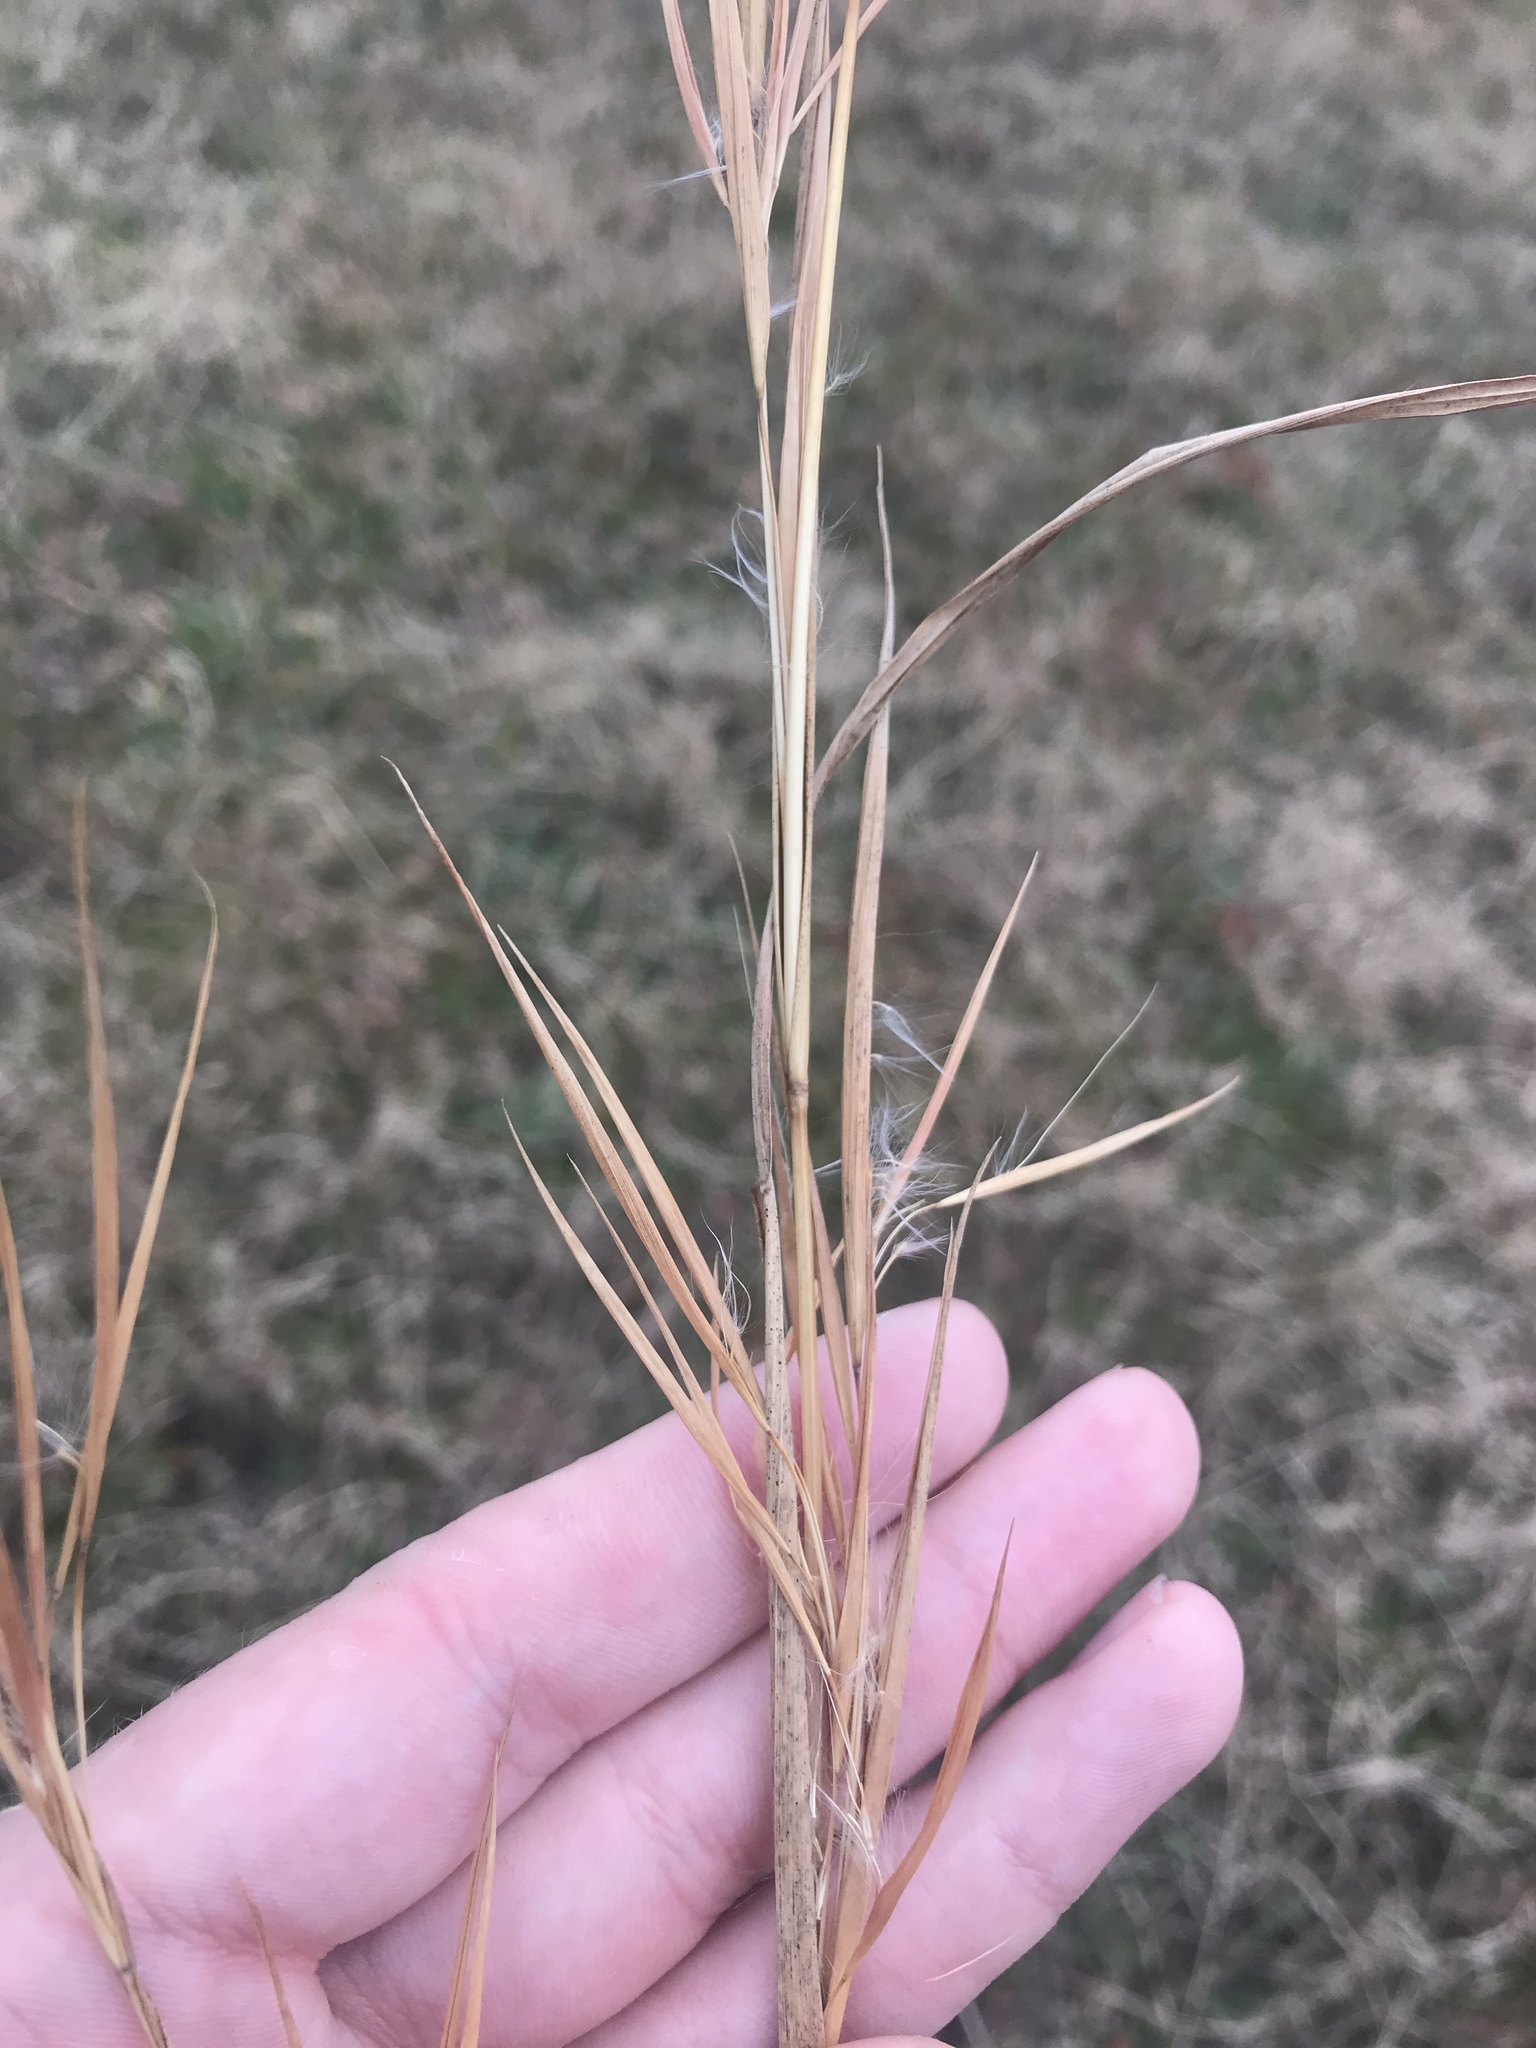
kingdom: Plantae
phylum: Tracheophyta
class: Liliopsida
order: Poales
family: Poaceae
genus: Andropogon
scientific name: Andropogon virginicus
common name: Broomsedge bluestem
